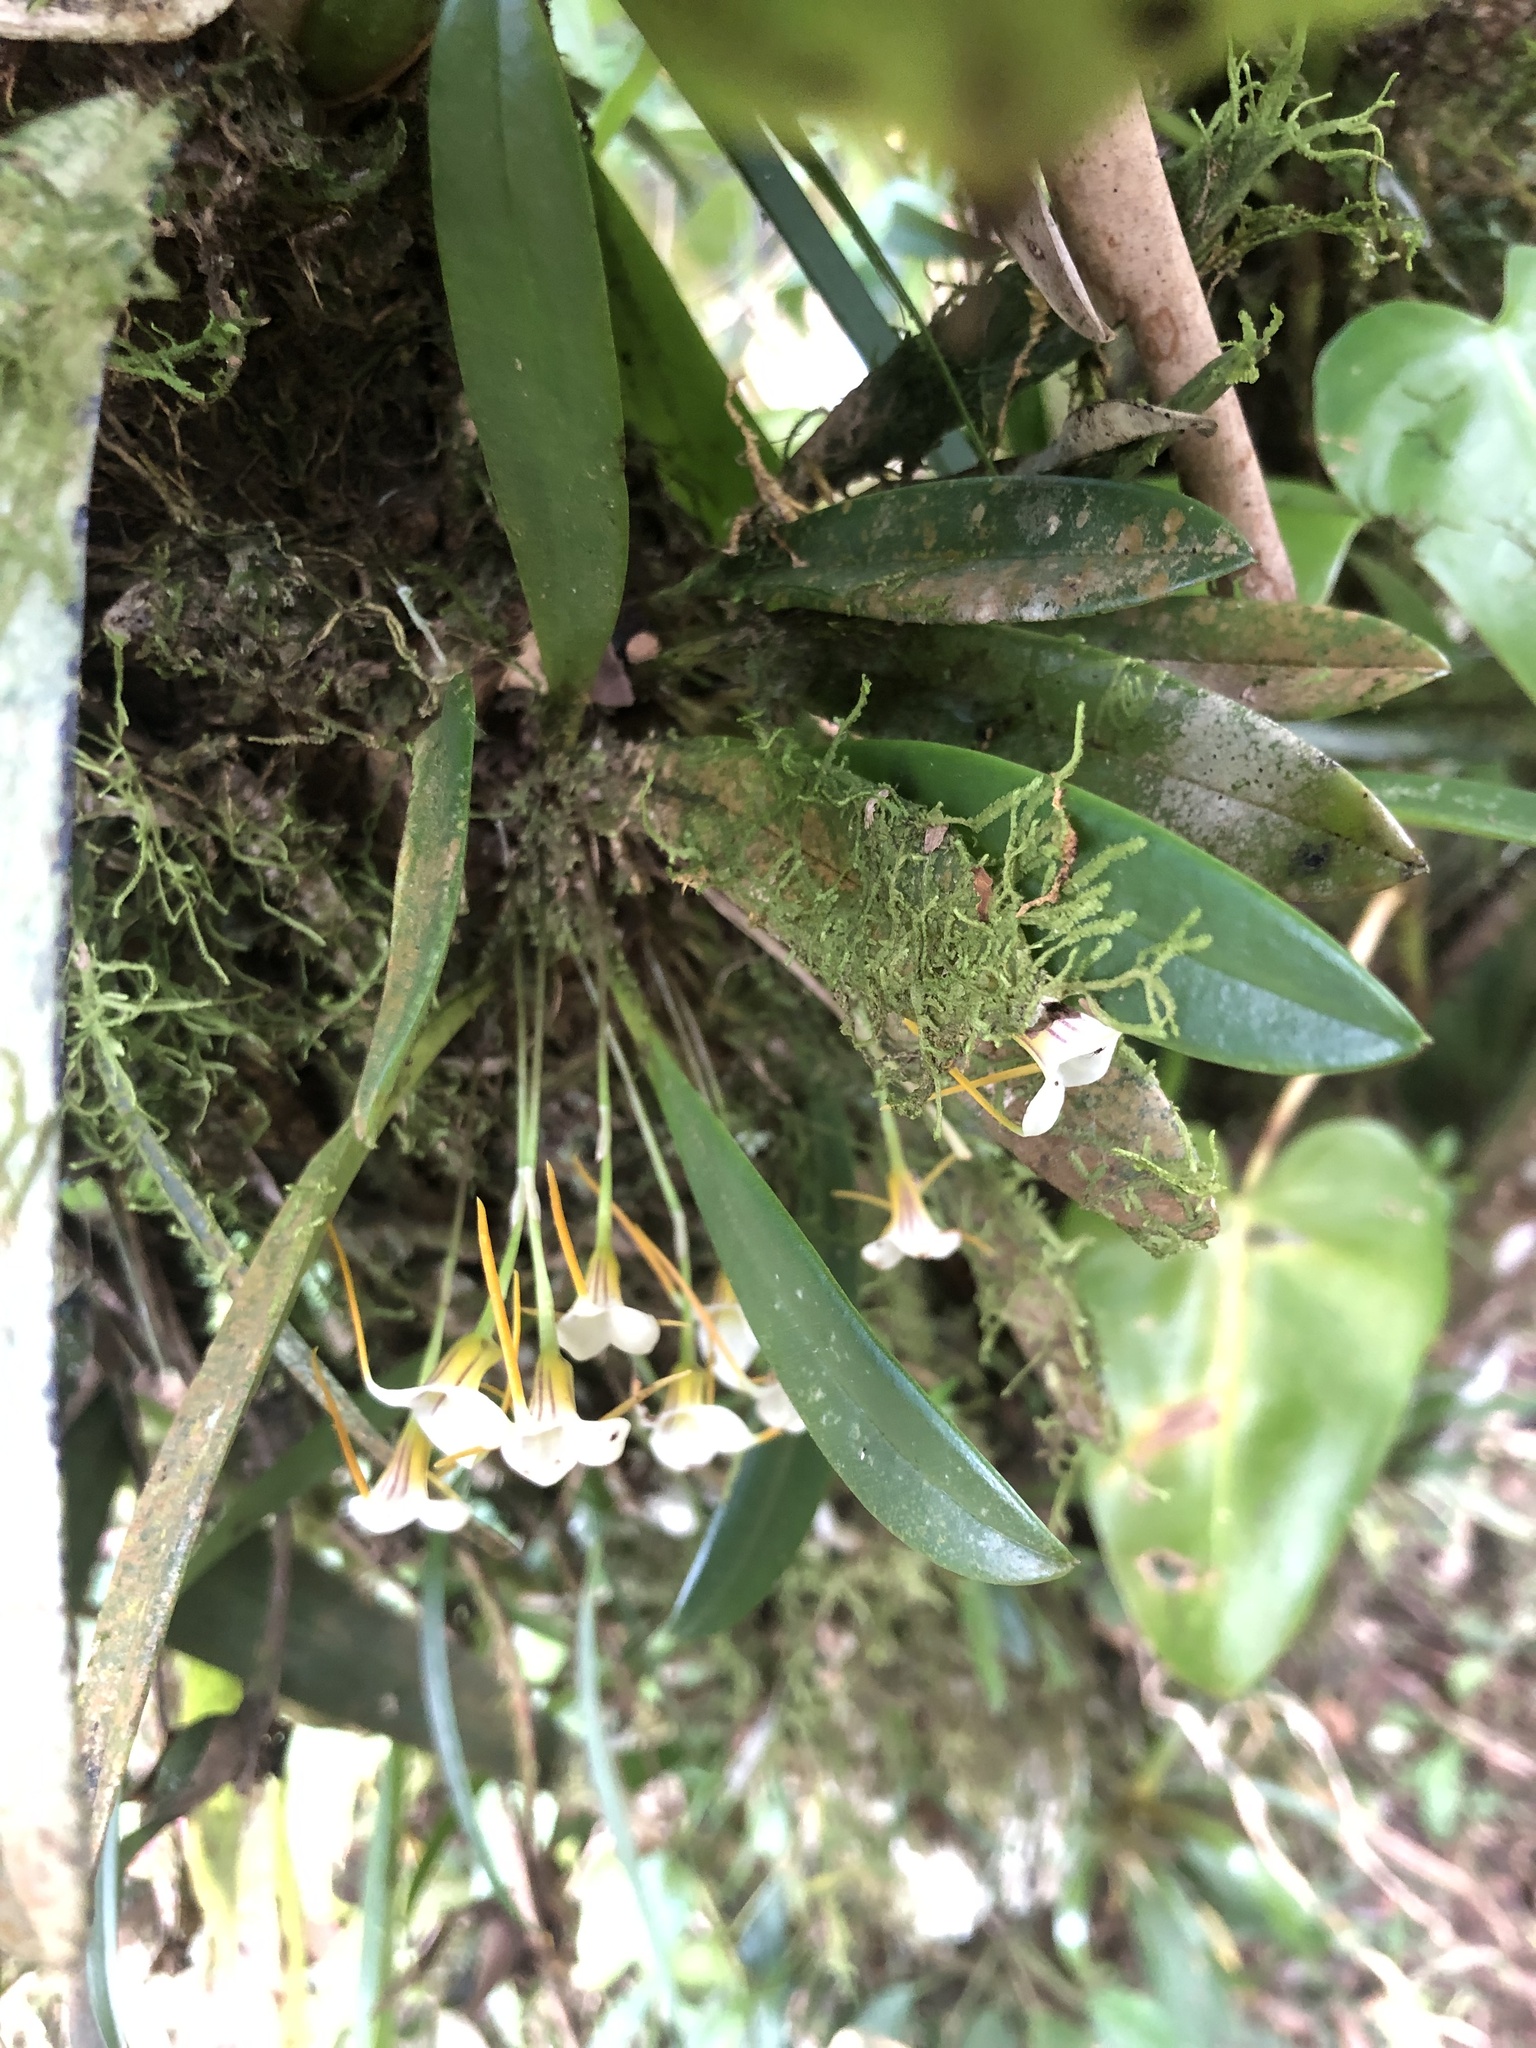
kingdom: Plantae
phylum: Tracheophyta
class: Liliopsida
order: Asparagales
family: Orchidaceae
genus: Masdevallia
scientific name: Masdevallia attenuata
